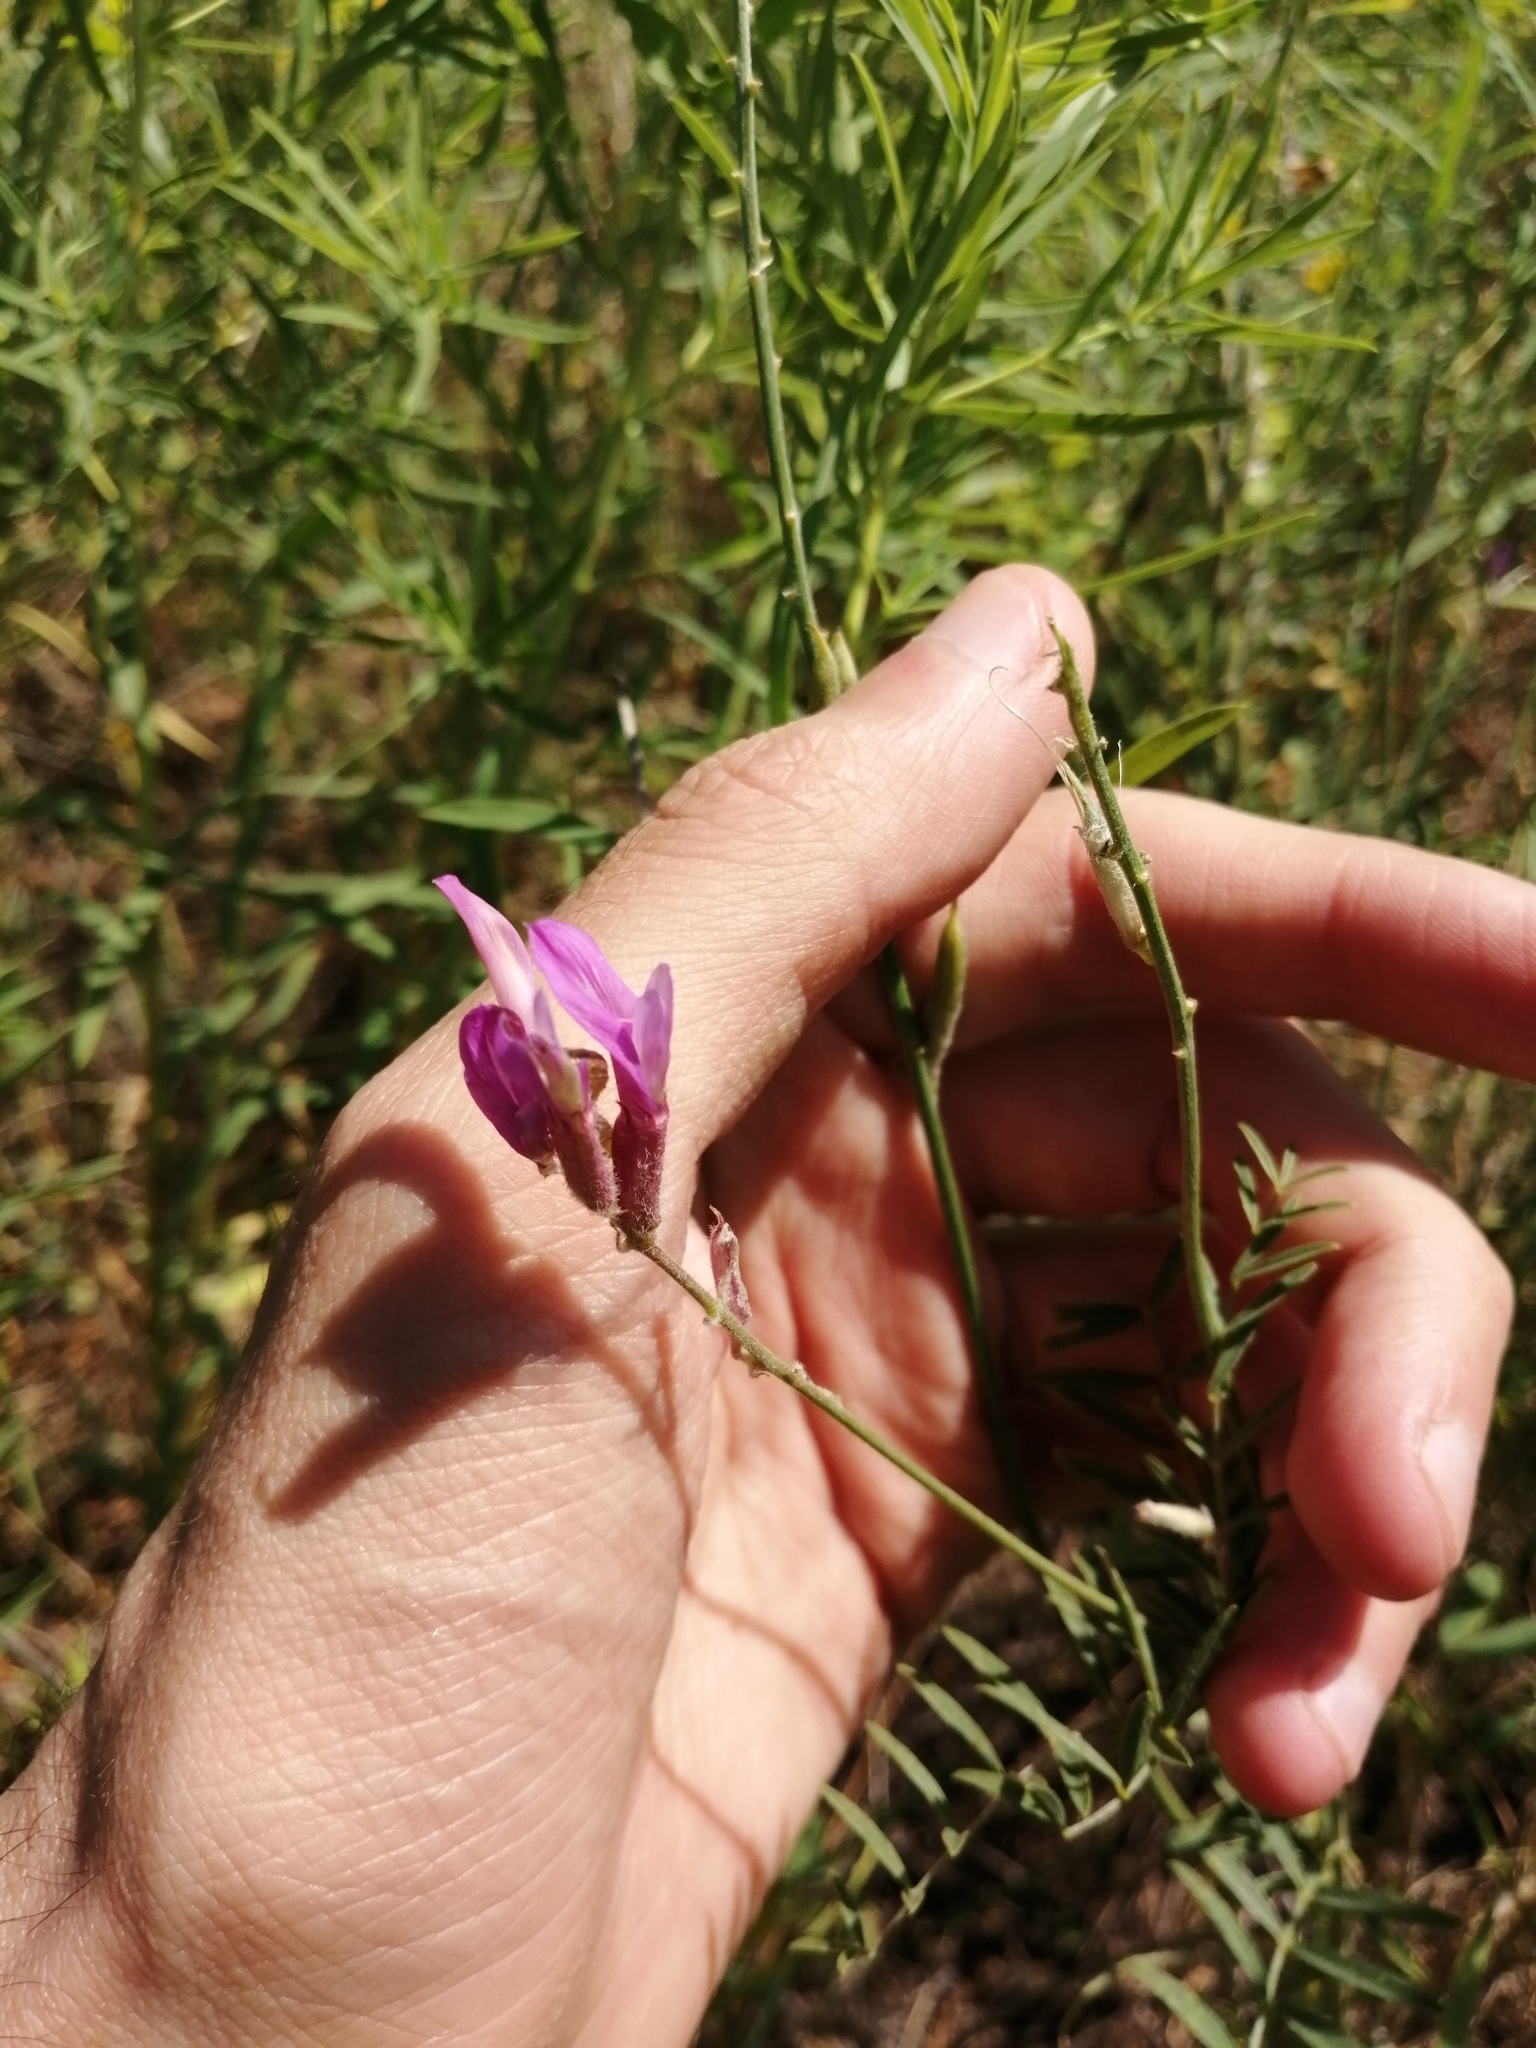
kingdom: Plantae
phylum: Tracheophyta
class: Magnoliopsida
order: Fabales
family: Fabaceae
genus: Astragalus
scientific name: Astragalus varius
